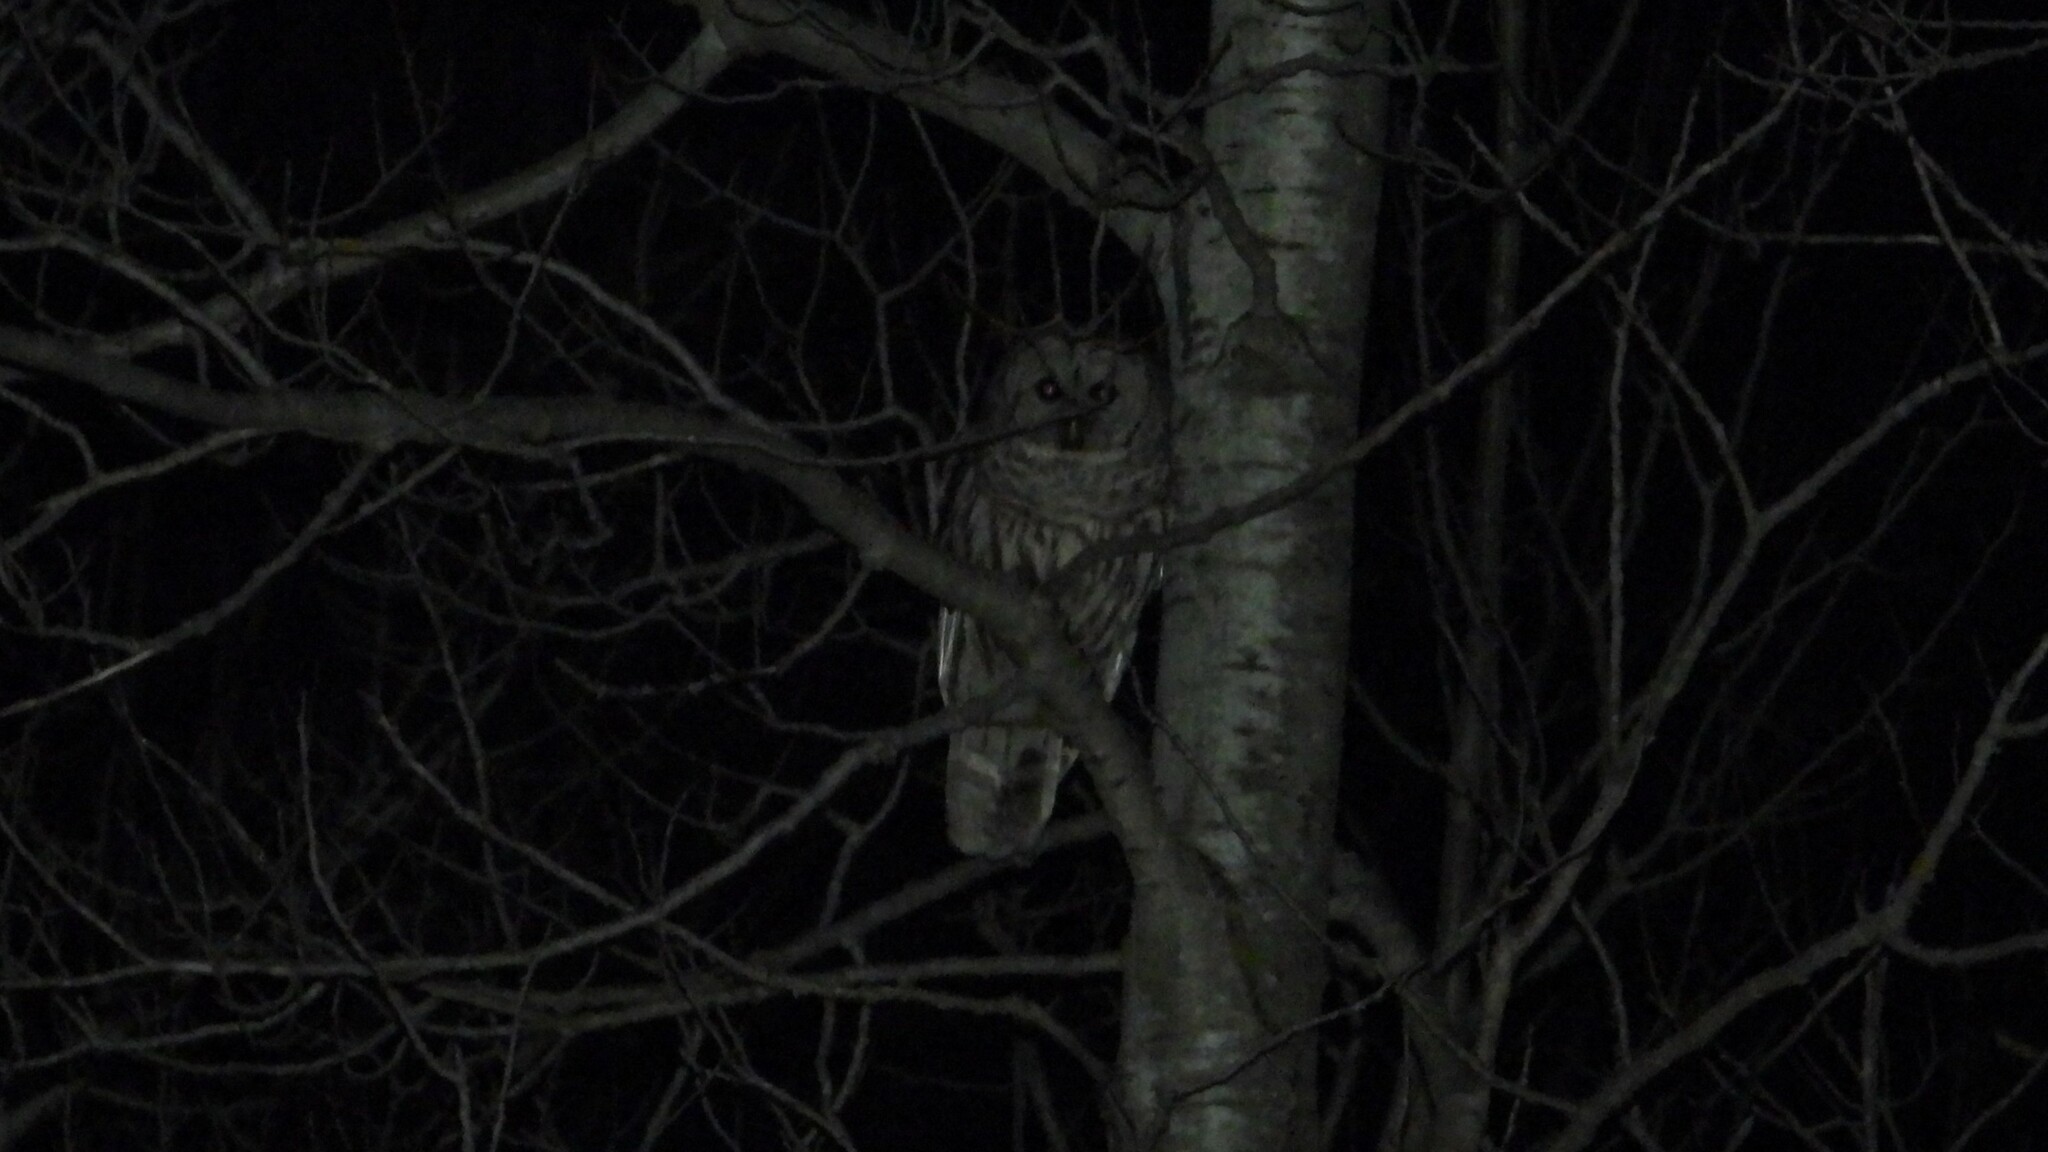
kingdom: Animalia
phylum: Chordata
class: Aves
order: Strigiformes
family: Strigidae
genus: Strix
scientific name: Strix varia
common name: Barred owl
